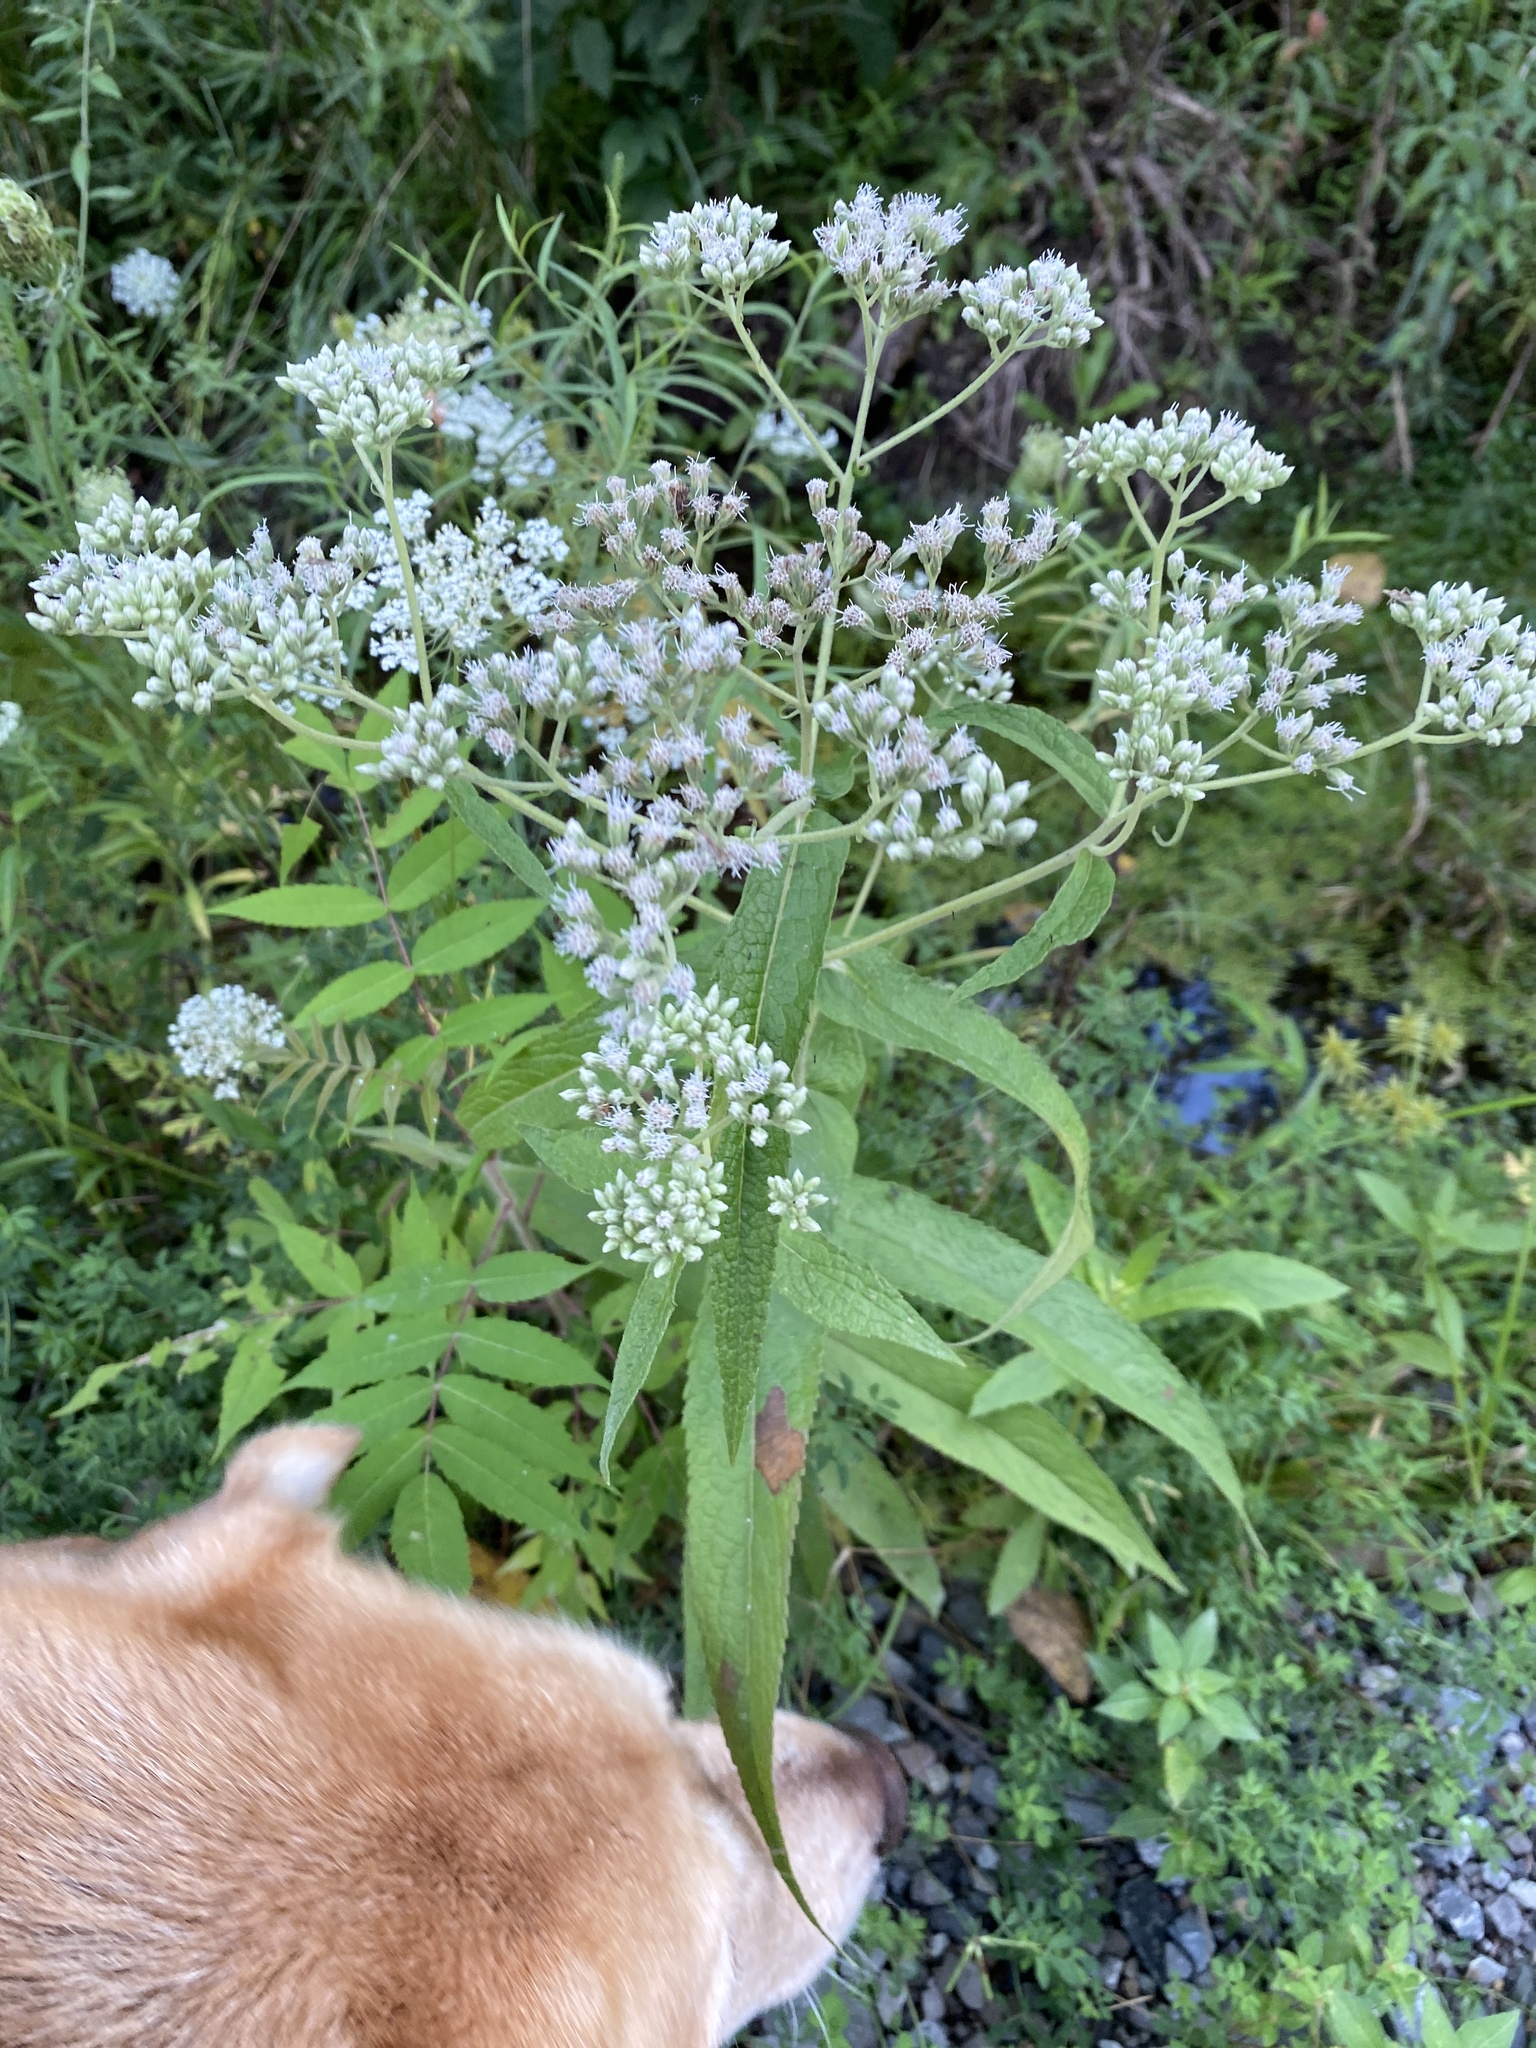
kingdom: Plantae
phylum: Tracheophyta
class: Magnoliopsida
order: Asterales
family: Asteraceae
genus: Eupatorium
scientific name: Eupatorium perfoliatum
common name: Boneset
